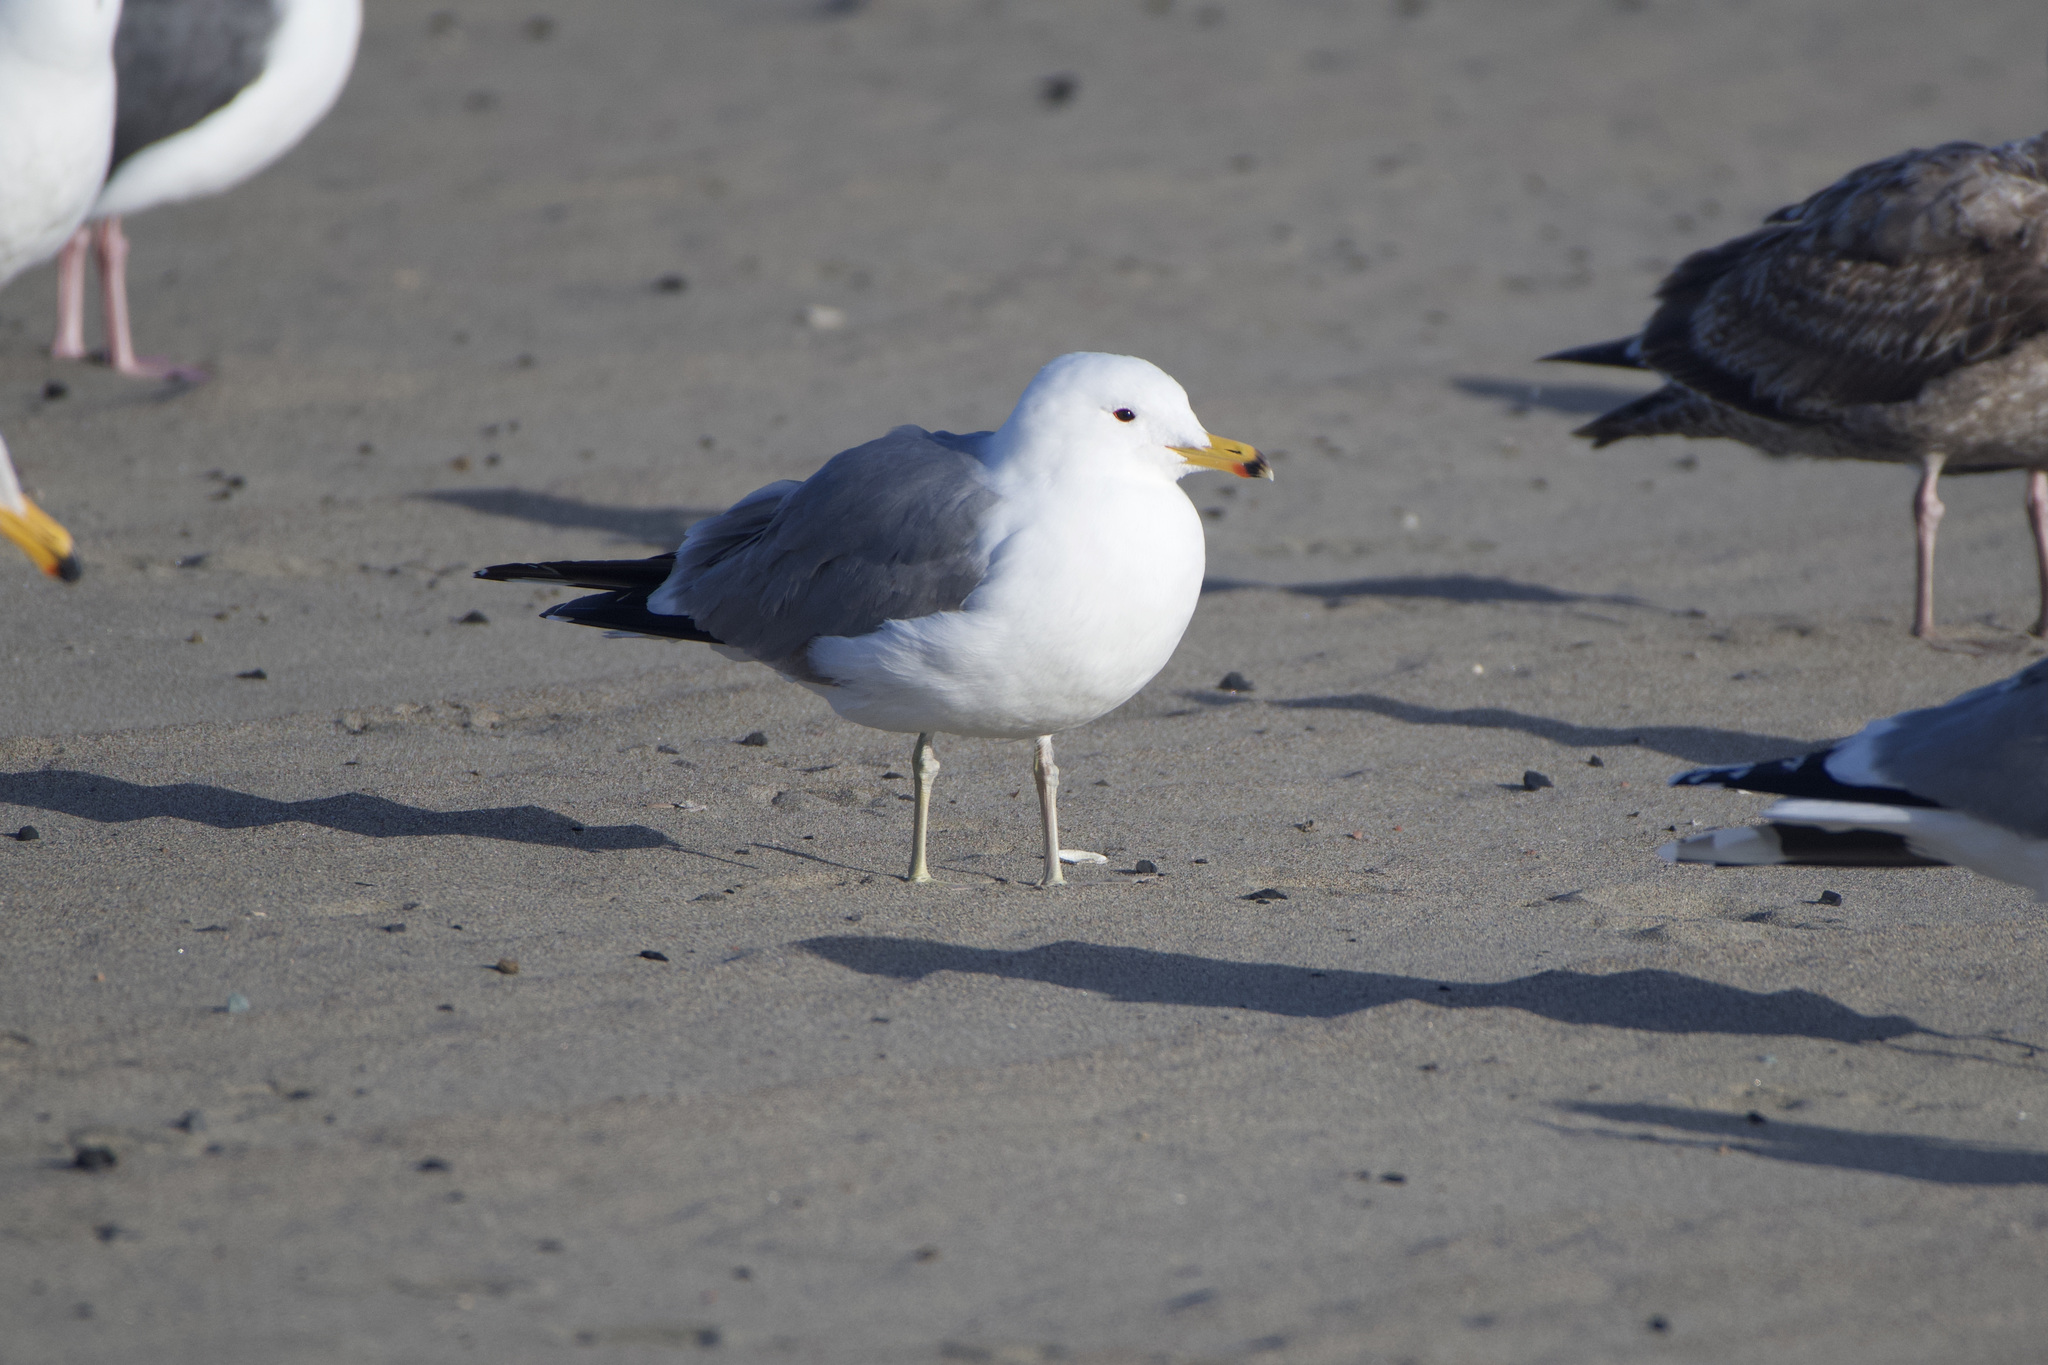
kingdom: Animalia
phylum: Chordata
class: Aves
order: Charadriiformes
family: Laridae
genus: Larus
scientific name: Larus californicus
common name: California gull
